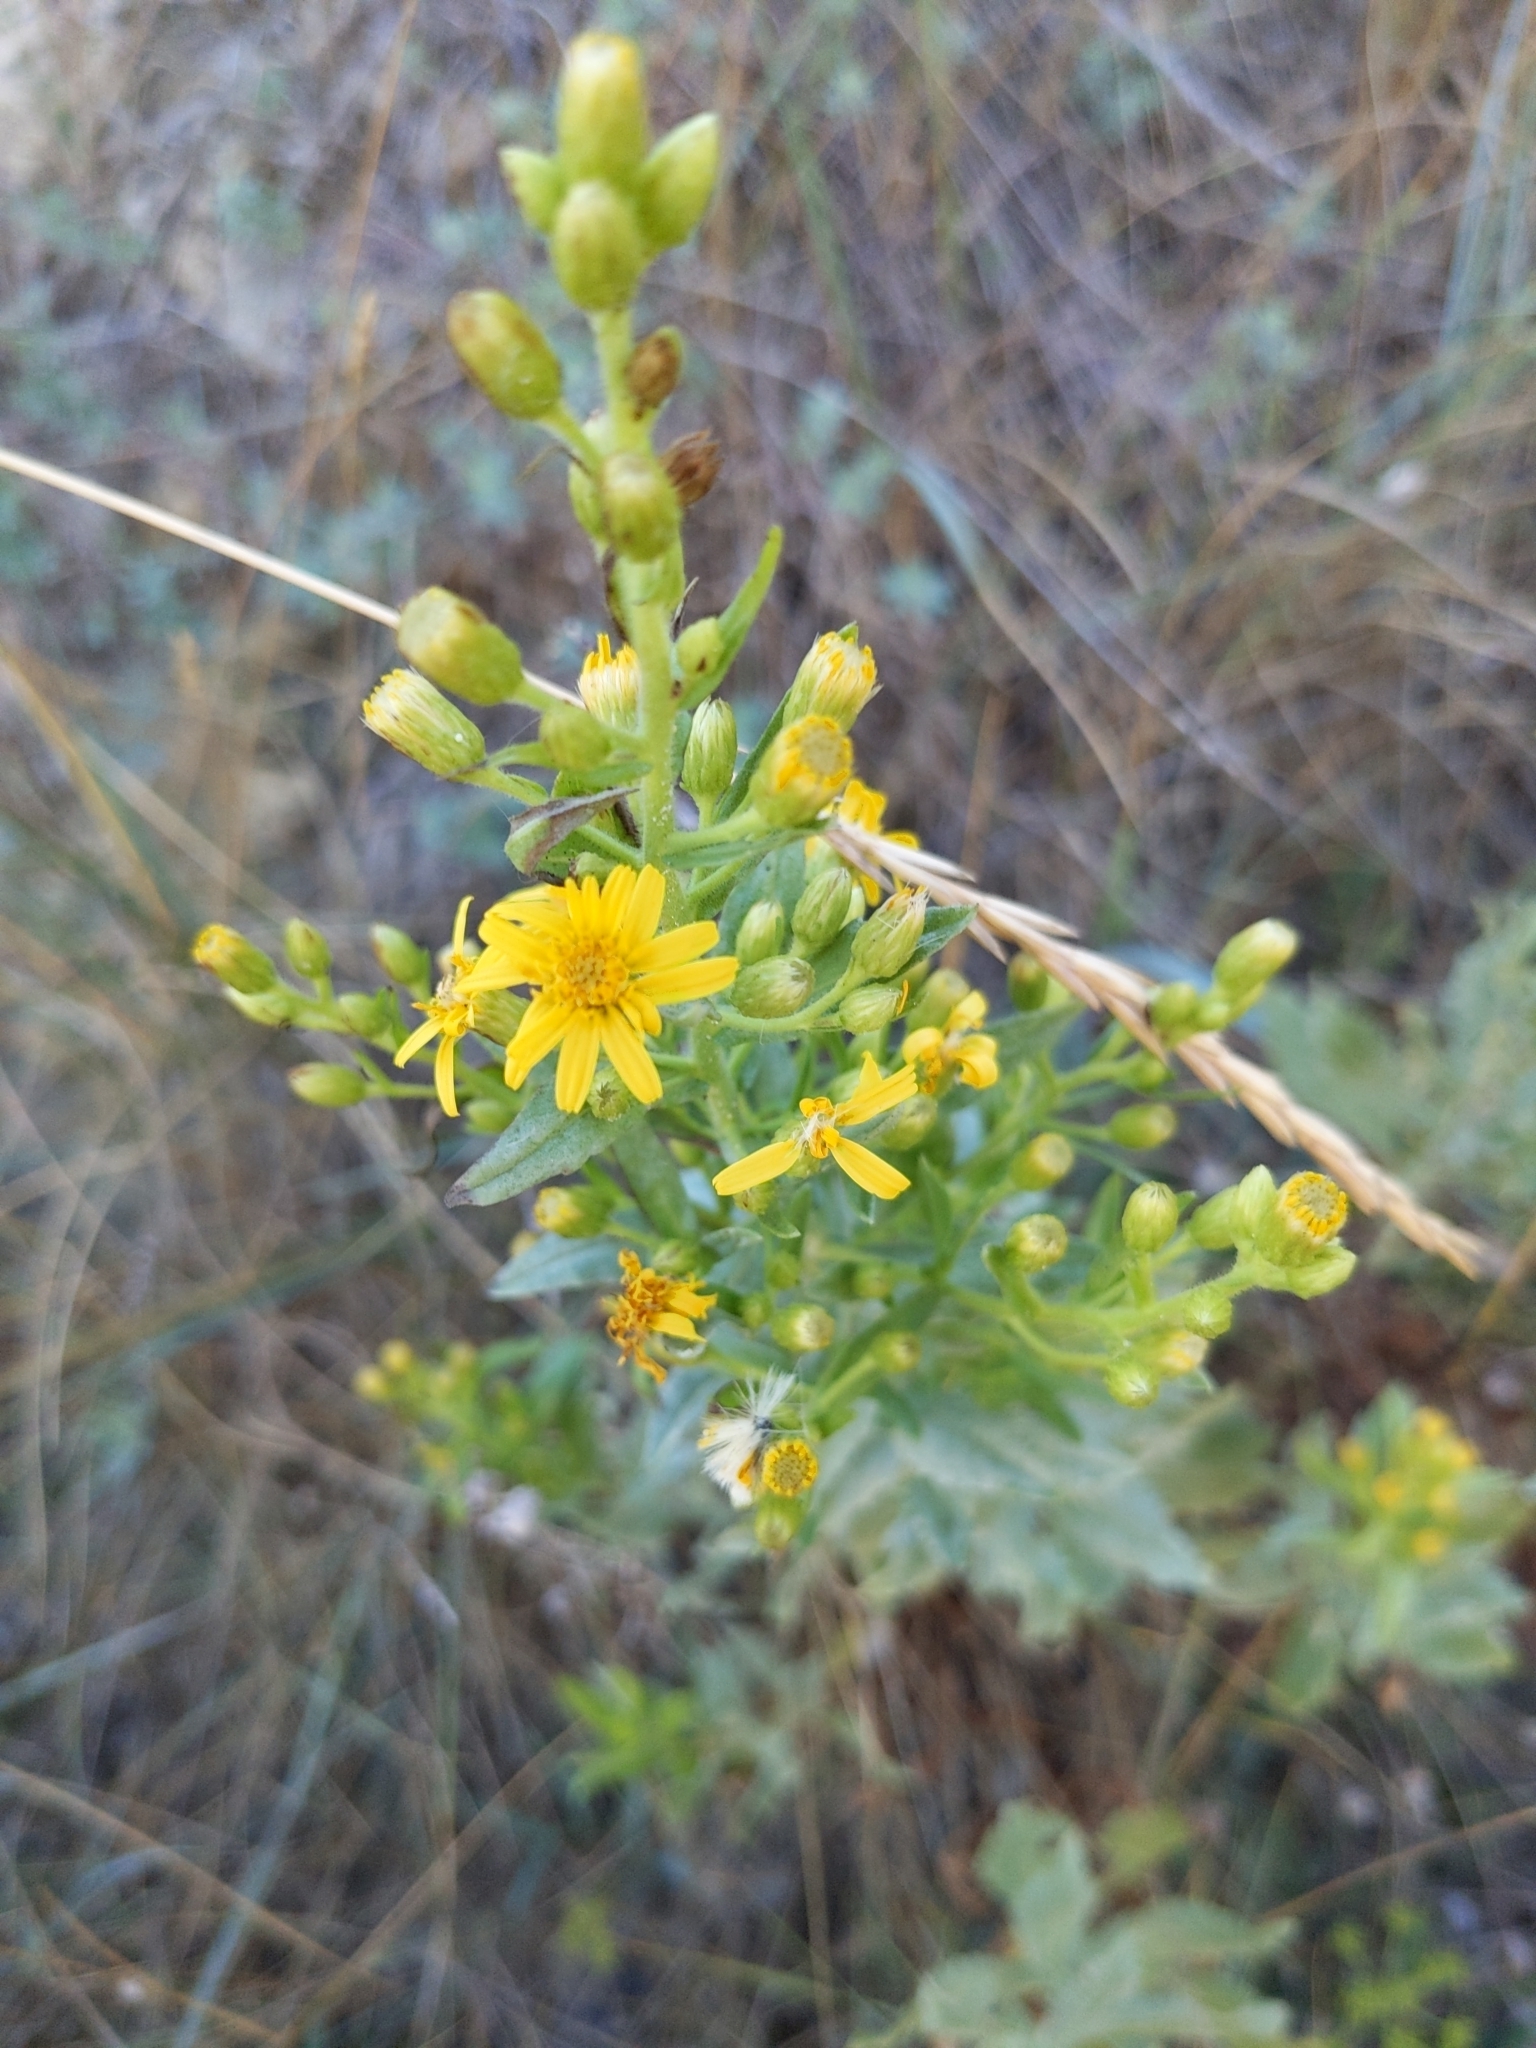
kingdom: Plantae
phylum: Tracheophyta
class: Magnoliopsida
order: Asterales
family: Asteraceae
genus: Dittrichia
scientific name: Dittrichia viscosa
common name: Woody fleabane
